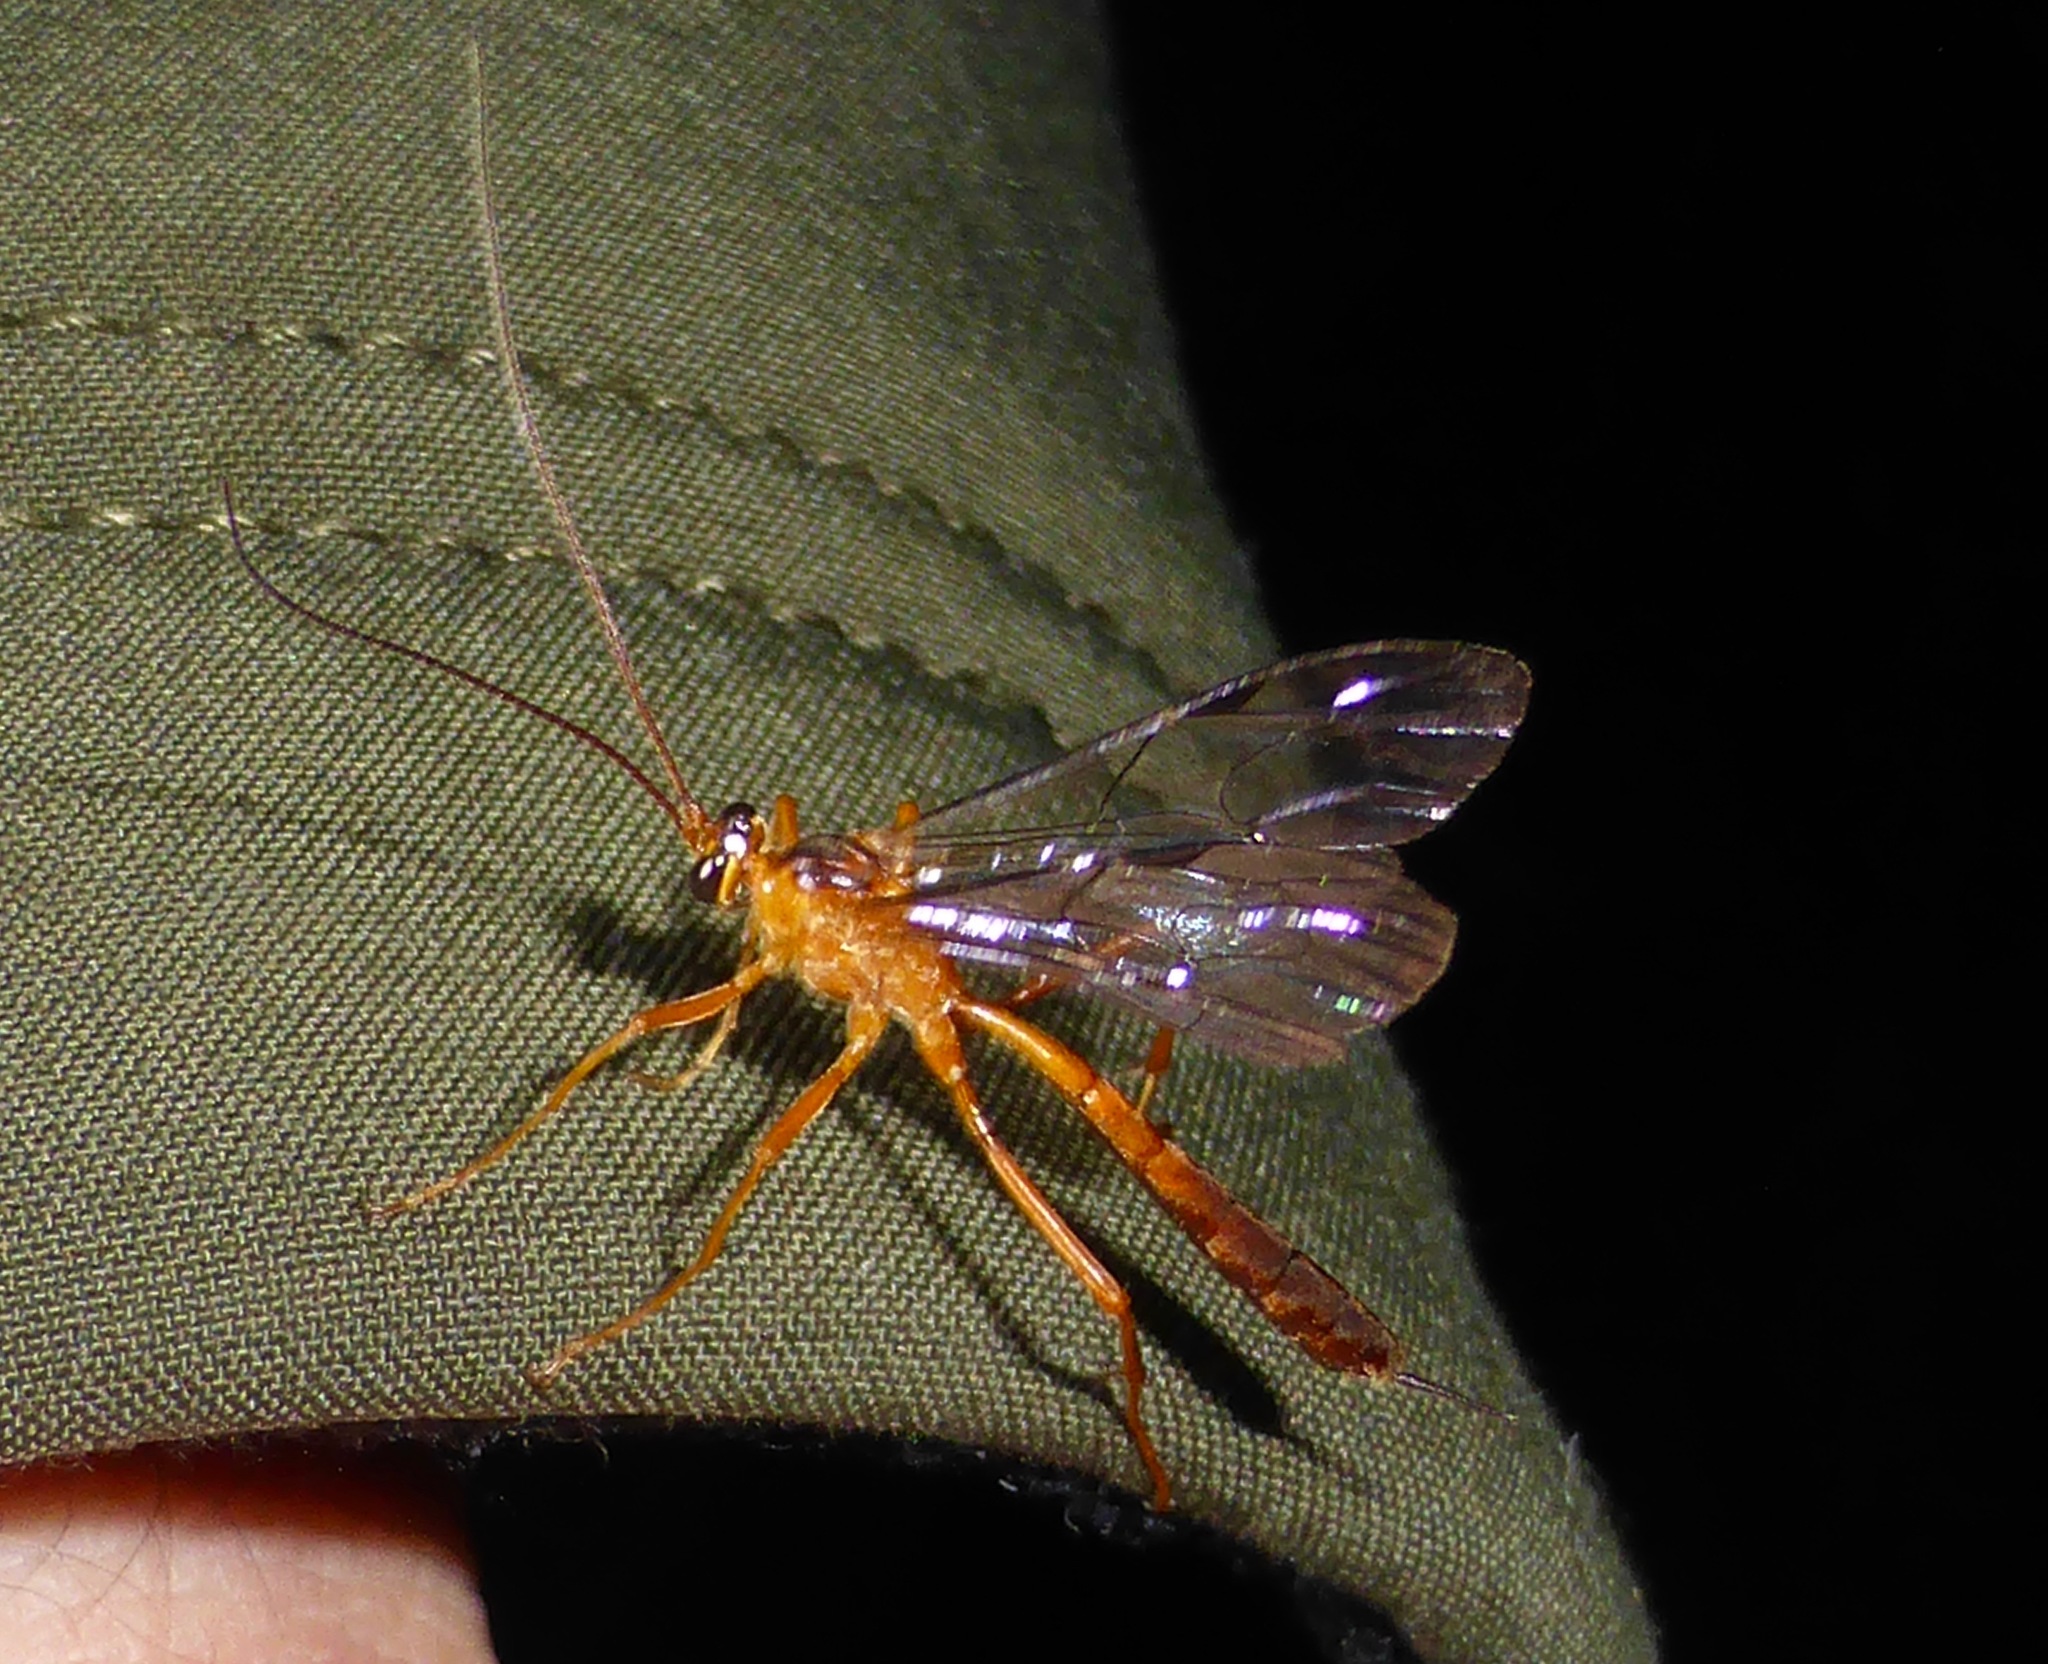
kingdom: Animalia
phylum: Arthropoda
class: Insecta
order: Hymenoptera
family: Ichneumonidae
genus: Netelia
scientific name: Netelia ephippiata
